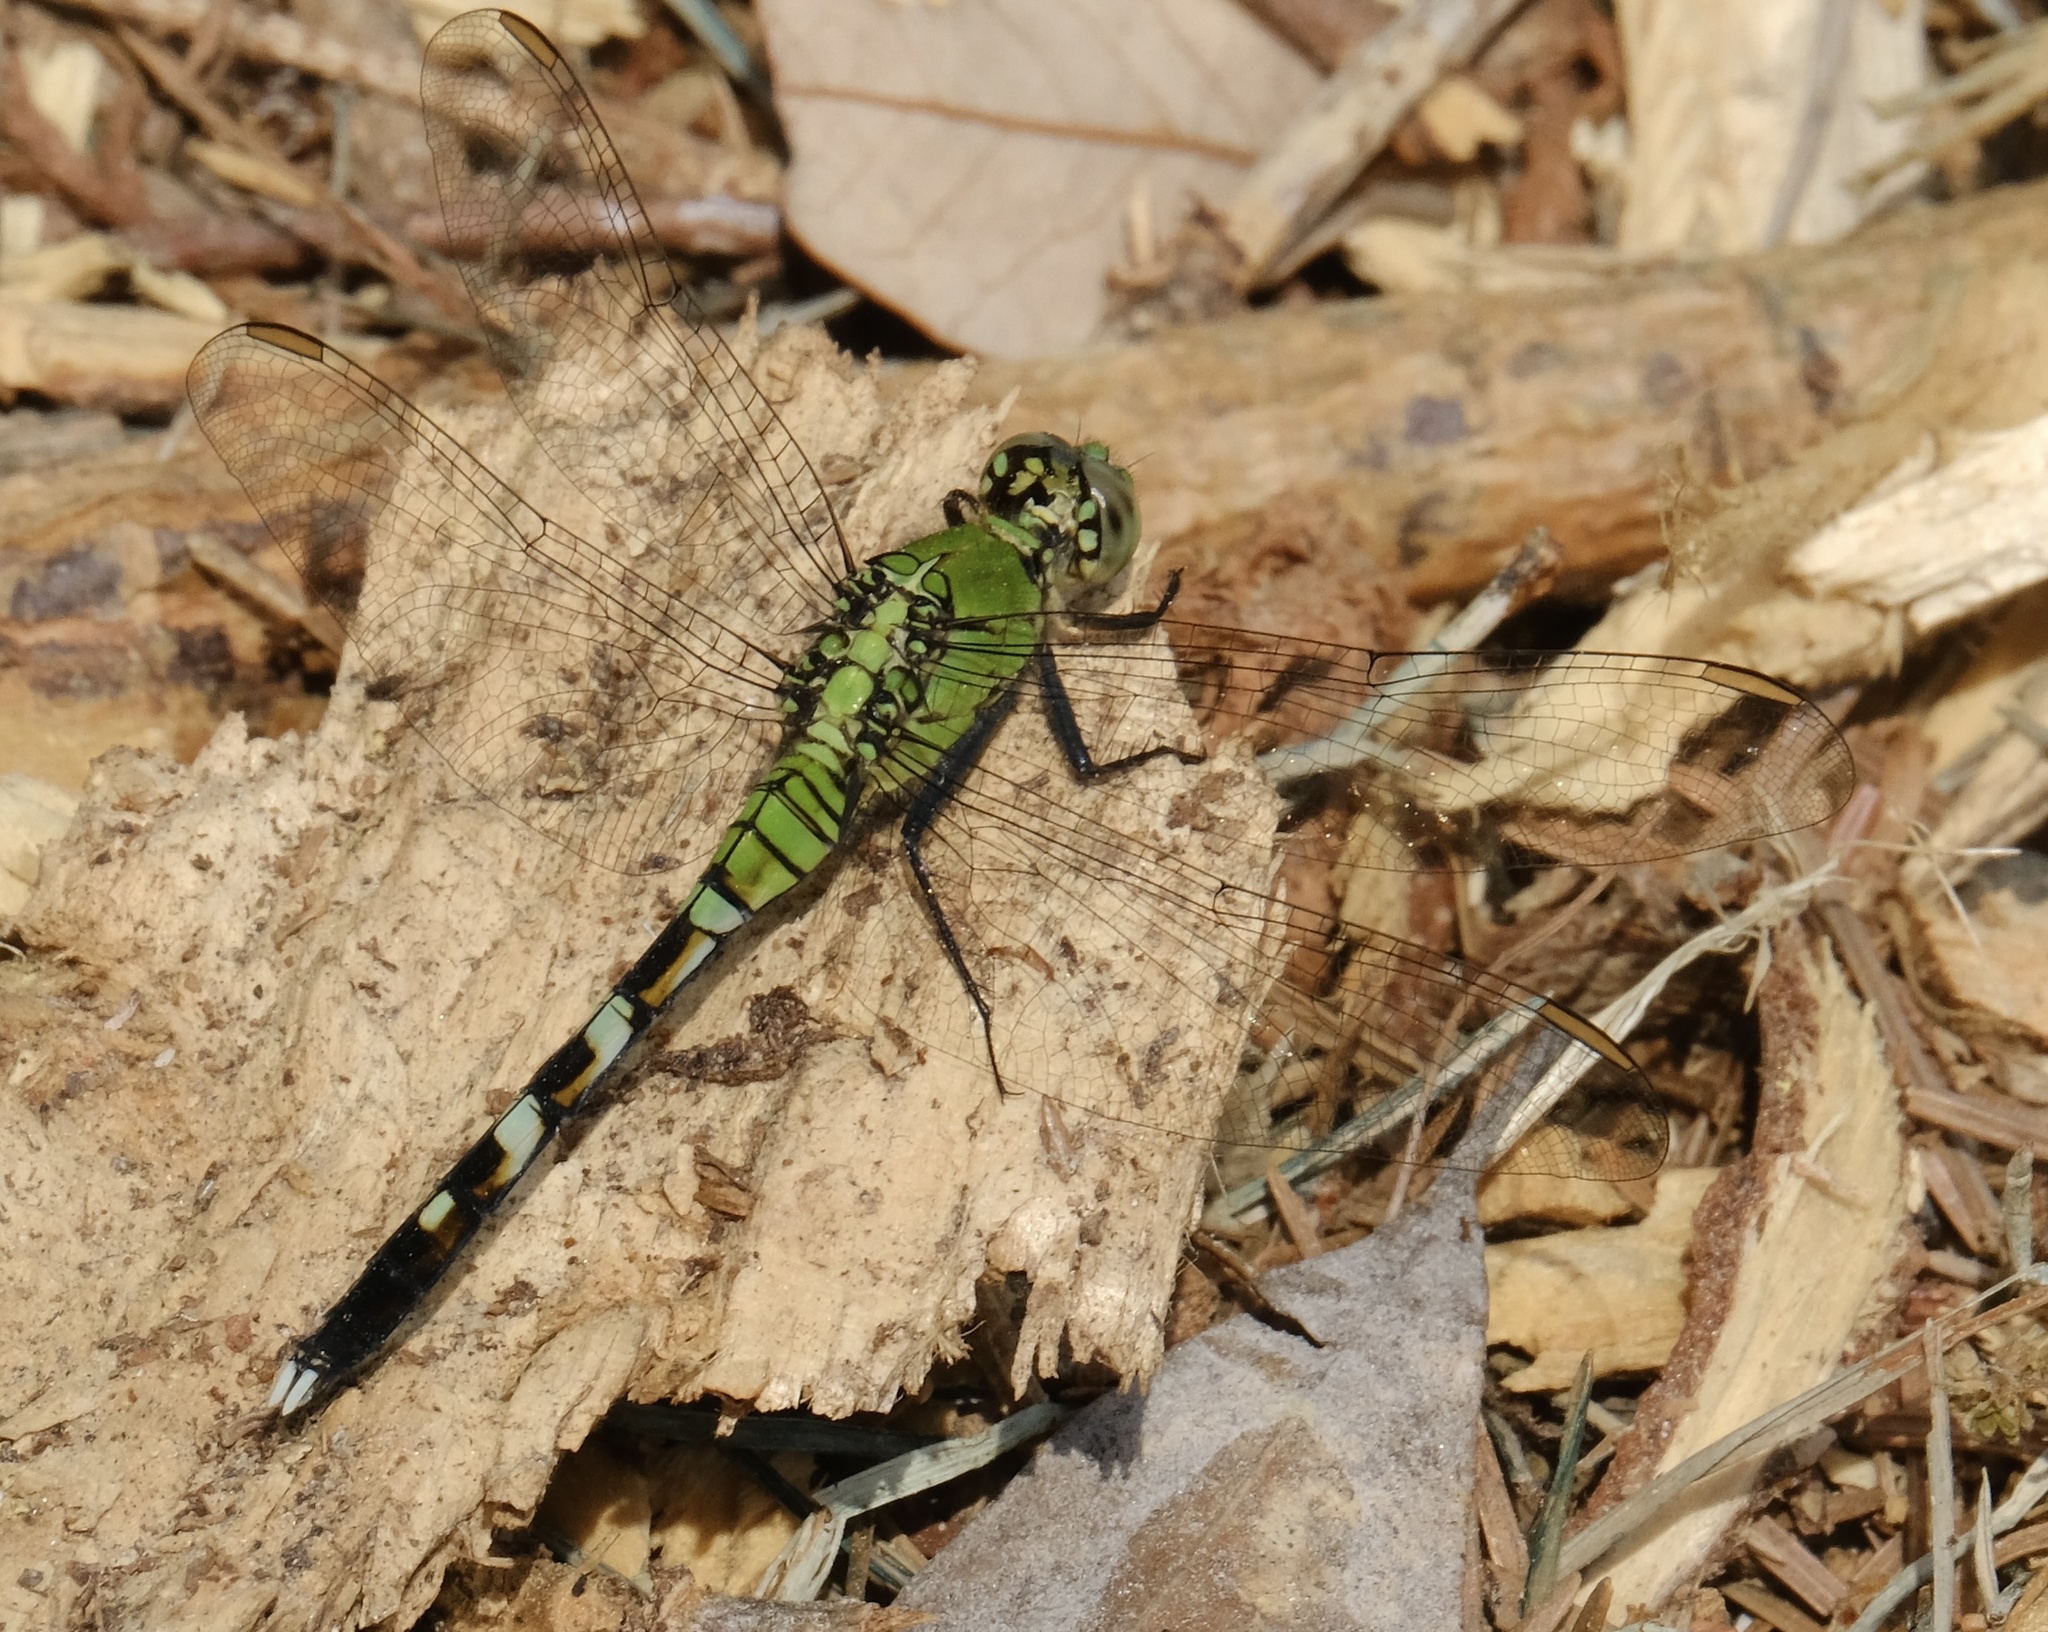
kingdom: Animalia
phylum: Arthropoda
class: Insecta
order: Odonata
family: Libellulidae
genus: Erythemis
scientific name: Erythemis simplicicollis
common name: Eastern pondhawk
